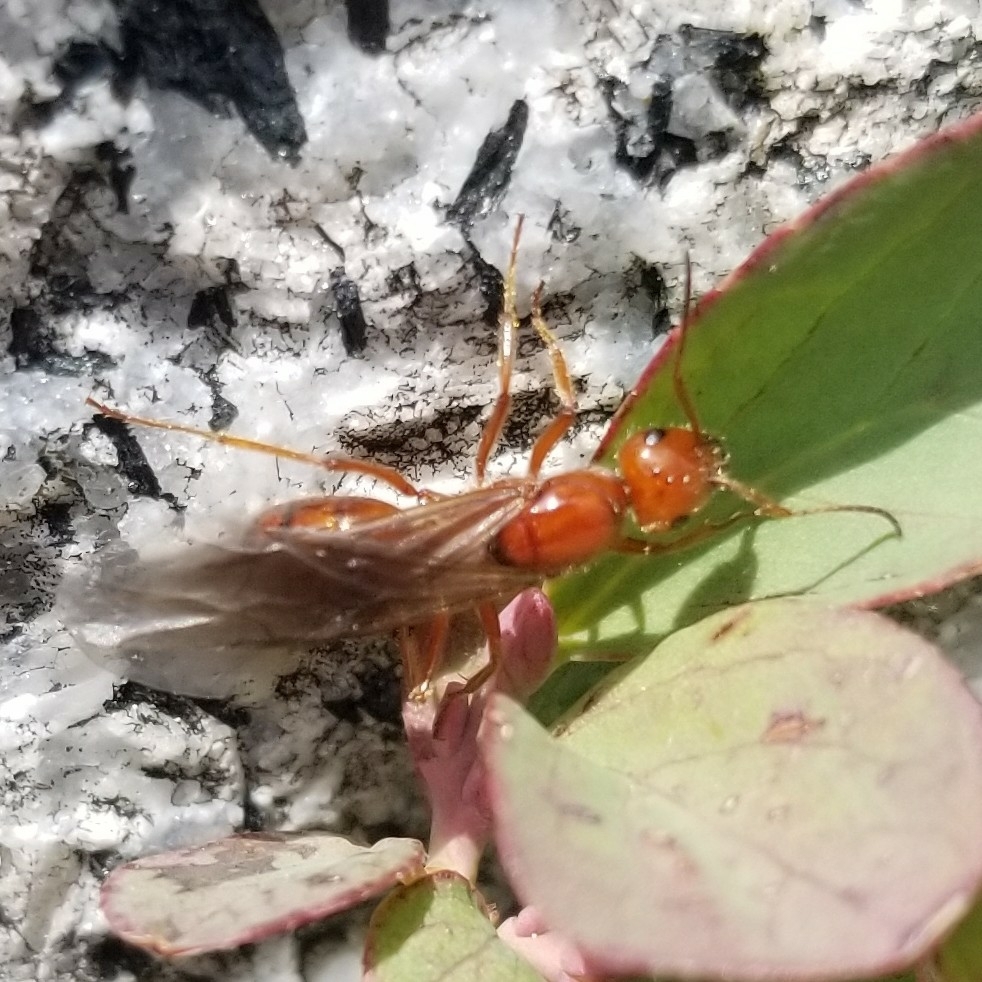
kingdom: Animalia
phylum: Arthropoda
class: Insecta
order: Hymenoptera
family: Formicidae
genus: Formica
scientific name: Formica oreas
